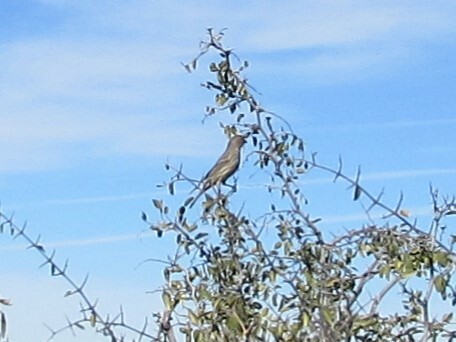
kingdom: Animalia
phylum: Chordata
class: Aves
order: Passeriformes
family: Fringillidae
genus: Haemorhous
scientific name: Haemorhous mexicanus
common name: House finch
